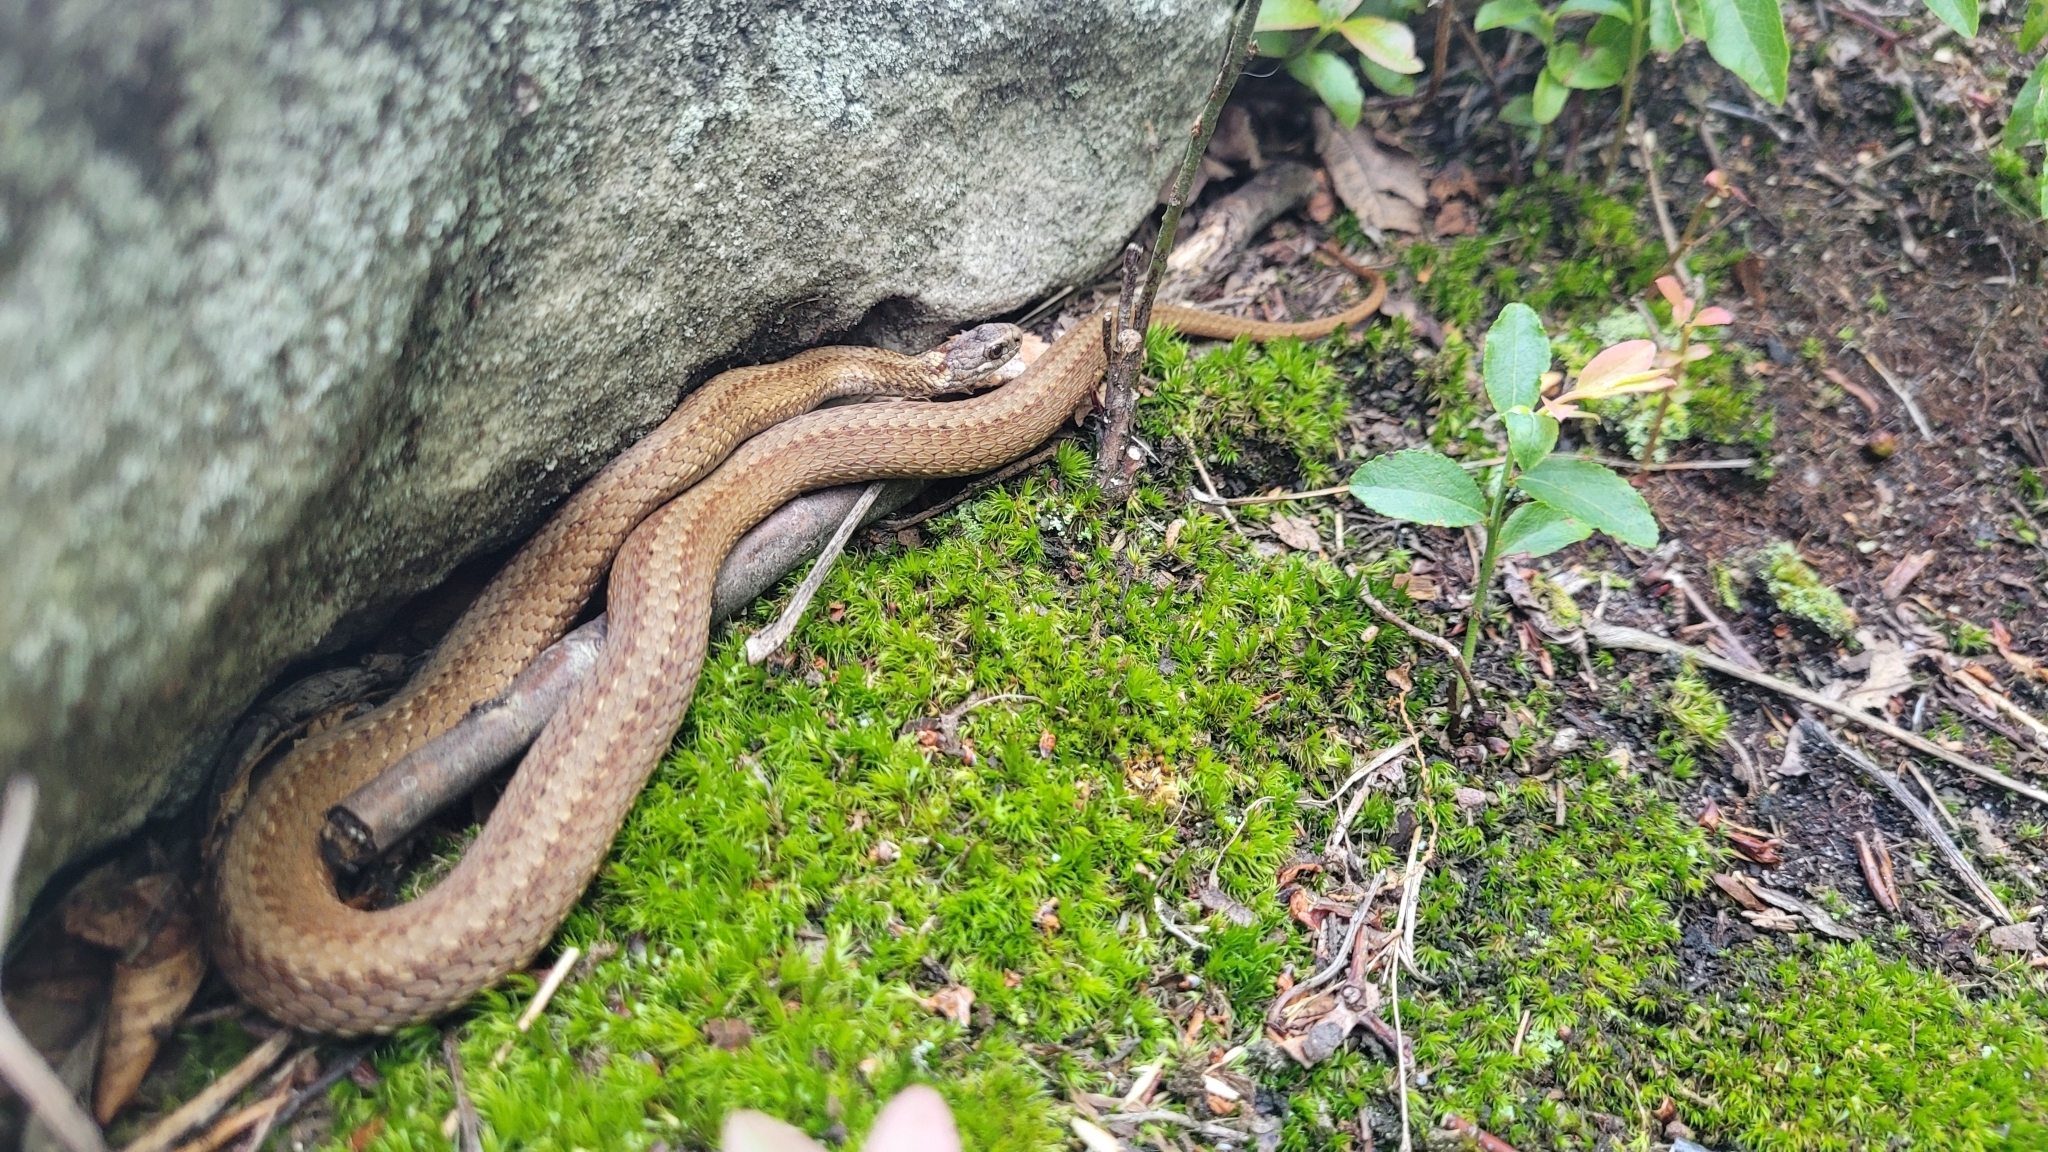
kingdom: Animalia
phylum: Chordata
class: Squamata
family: Colubridae
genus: Storeria
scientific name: Storeria occipitomaculata
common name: Redbelly snake
